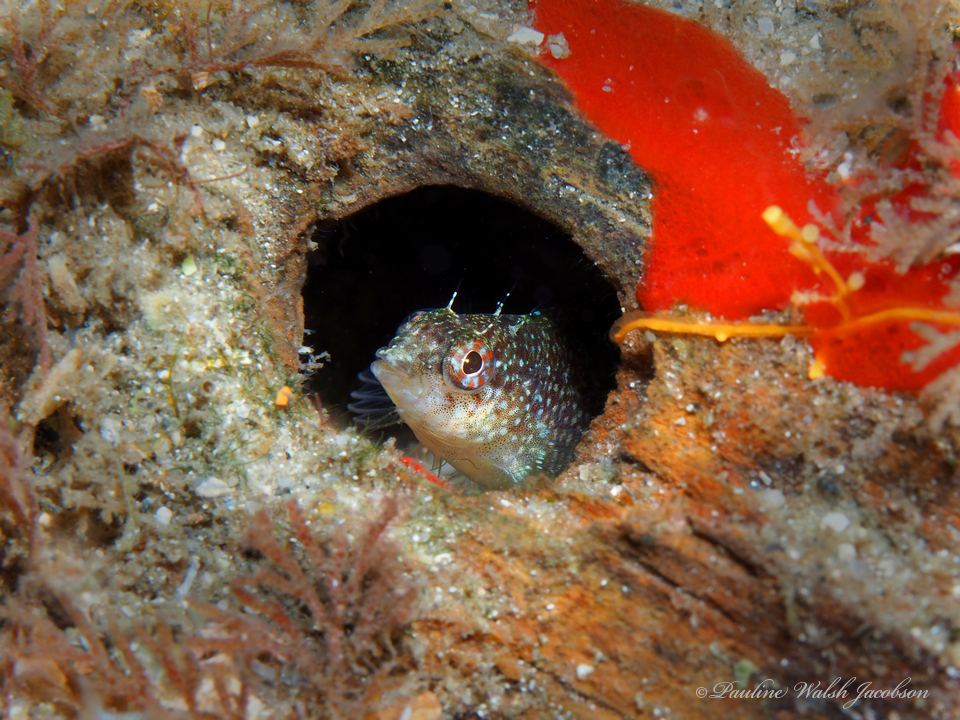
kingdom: Animalia
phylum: Chordata
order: Perciformes
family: Labrisomidae
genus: Malacoctenus
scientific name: Malacoctenus macropus
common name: Rosy blenny
